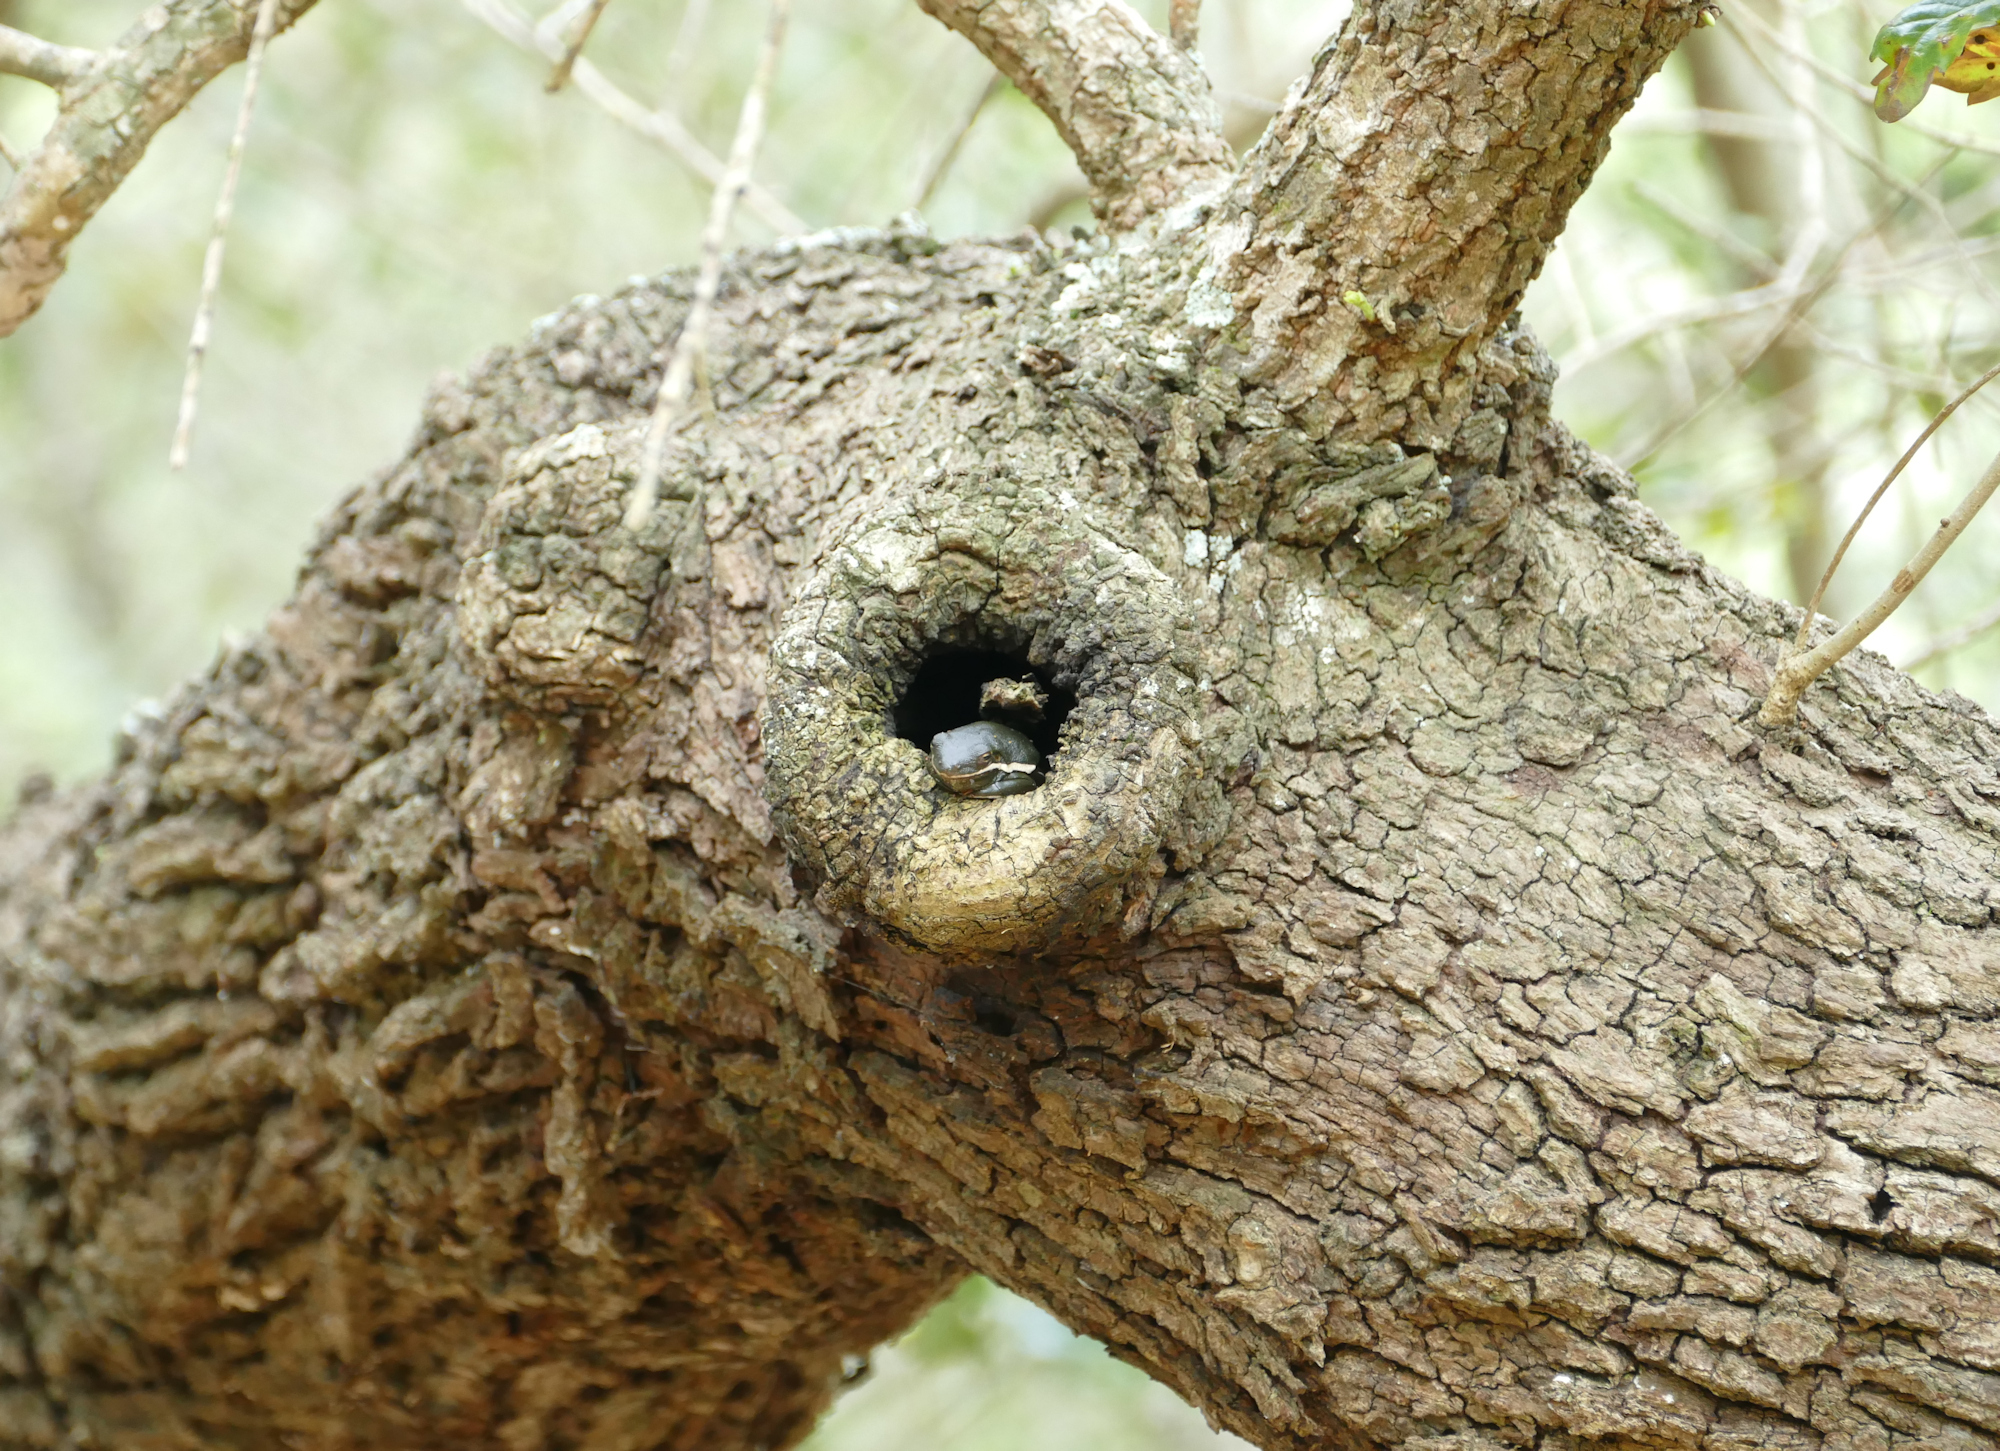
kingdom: Animalia
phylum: Chordata
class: Amphibia
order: Anura
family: Hylidae
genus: Dryophytes
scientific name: Dryophytes cinereus
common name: Green treefrog
